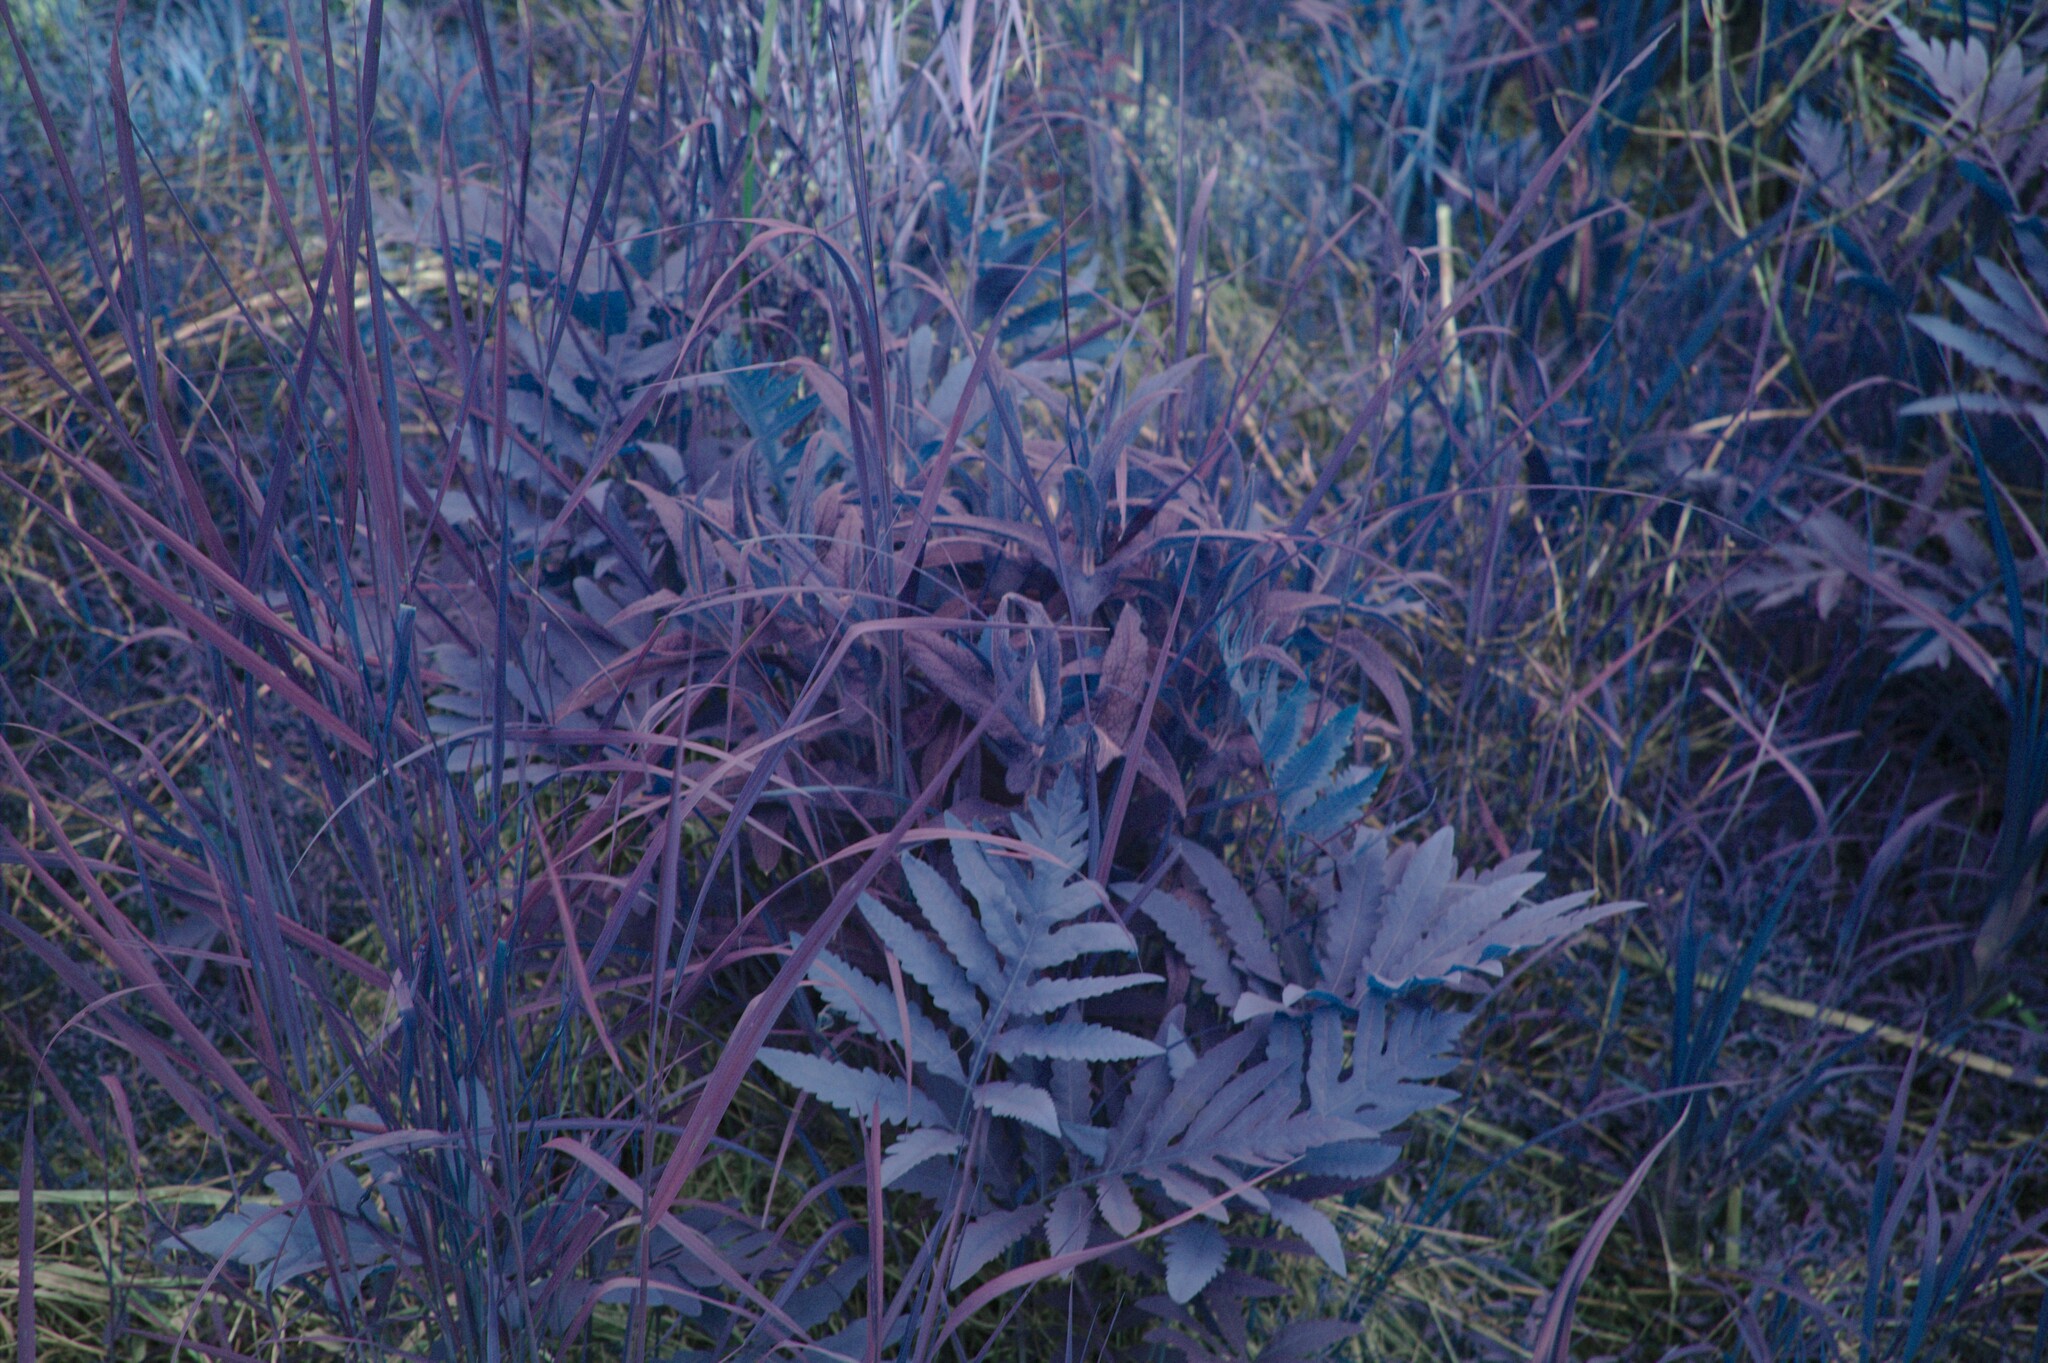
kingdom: Plantae
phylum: Tracheophyta
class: Polypodiopsida
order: Polypodiales
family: Onocleaceae
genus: Onoclea
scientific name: Onoclea sensibilis
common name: Sensitive fern
